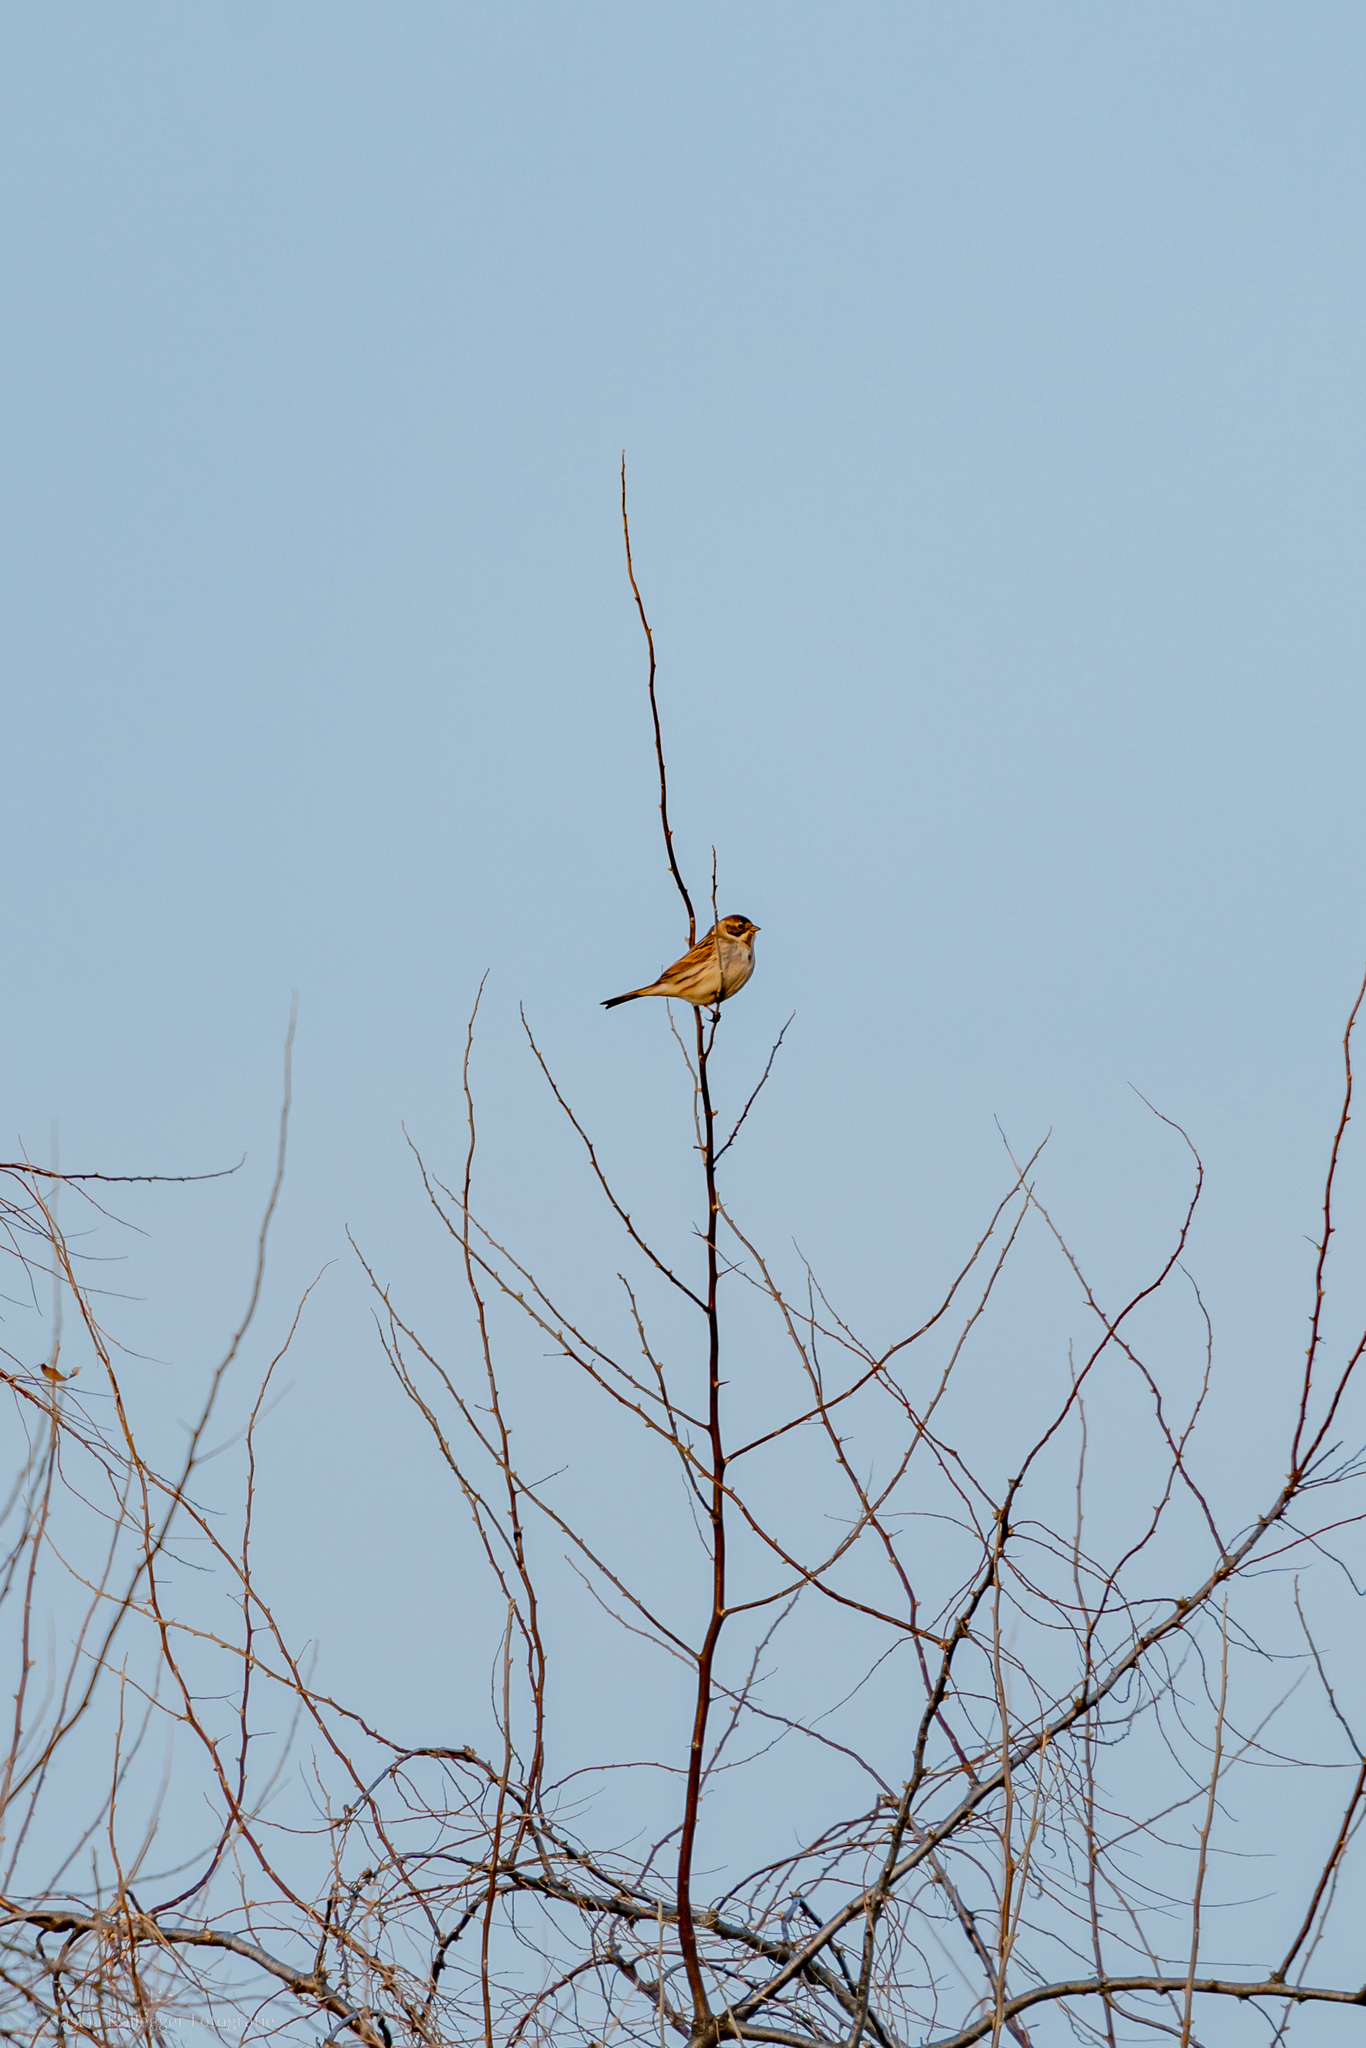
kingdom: Animalia
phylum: Chordata
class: Aves
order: Passeriformes
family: Emberizidae
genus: Emberiza
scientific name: Emberiza schoeniclus
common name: Reed bunting
